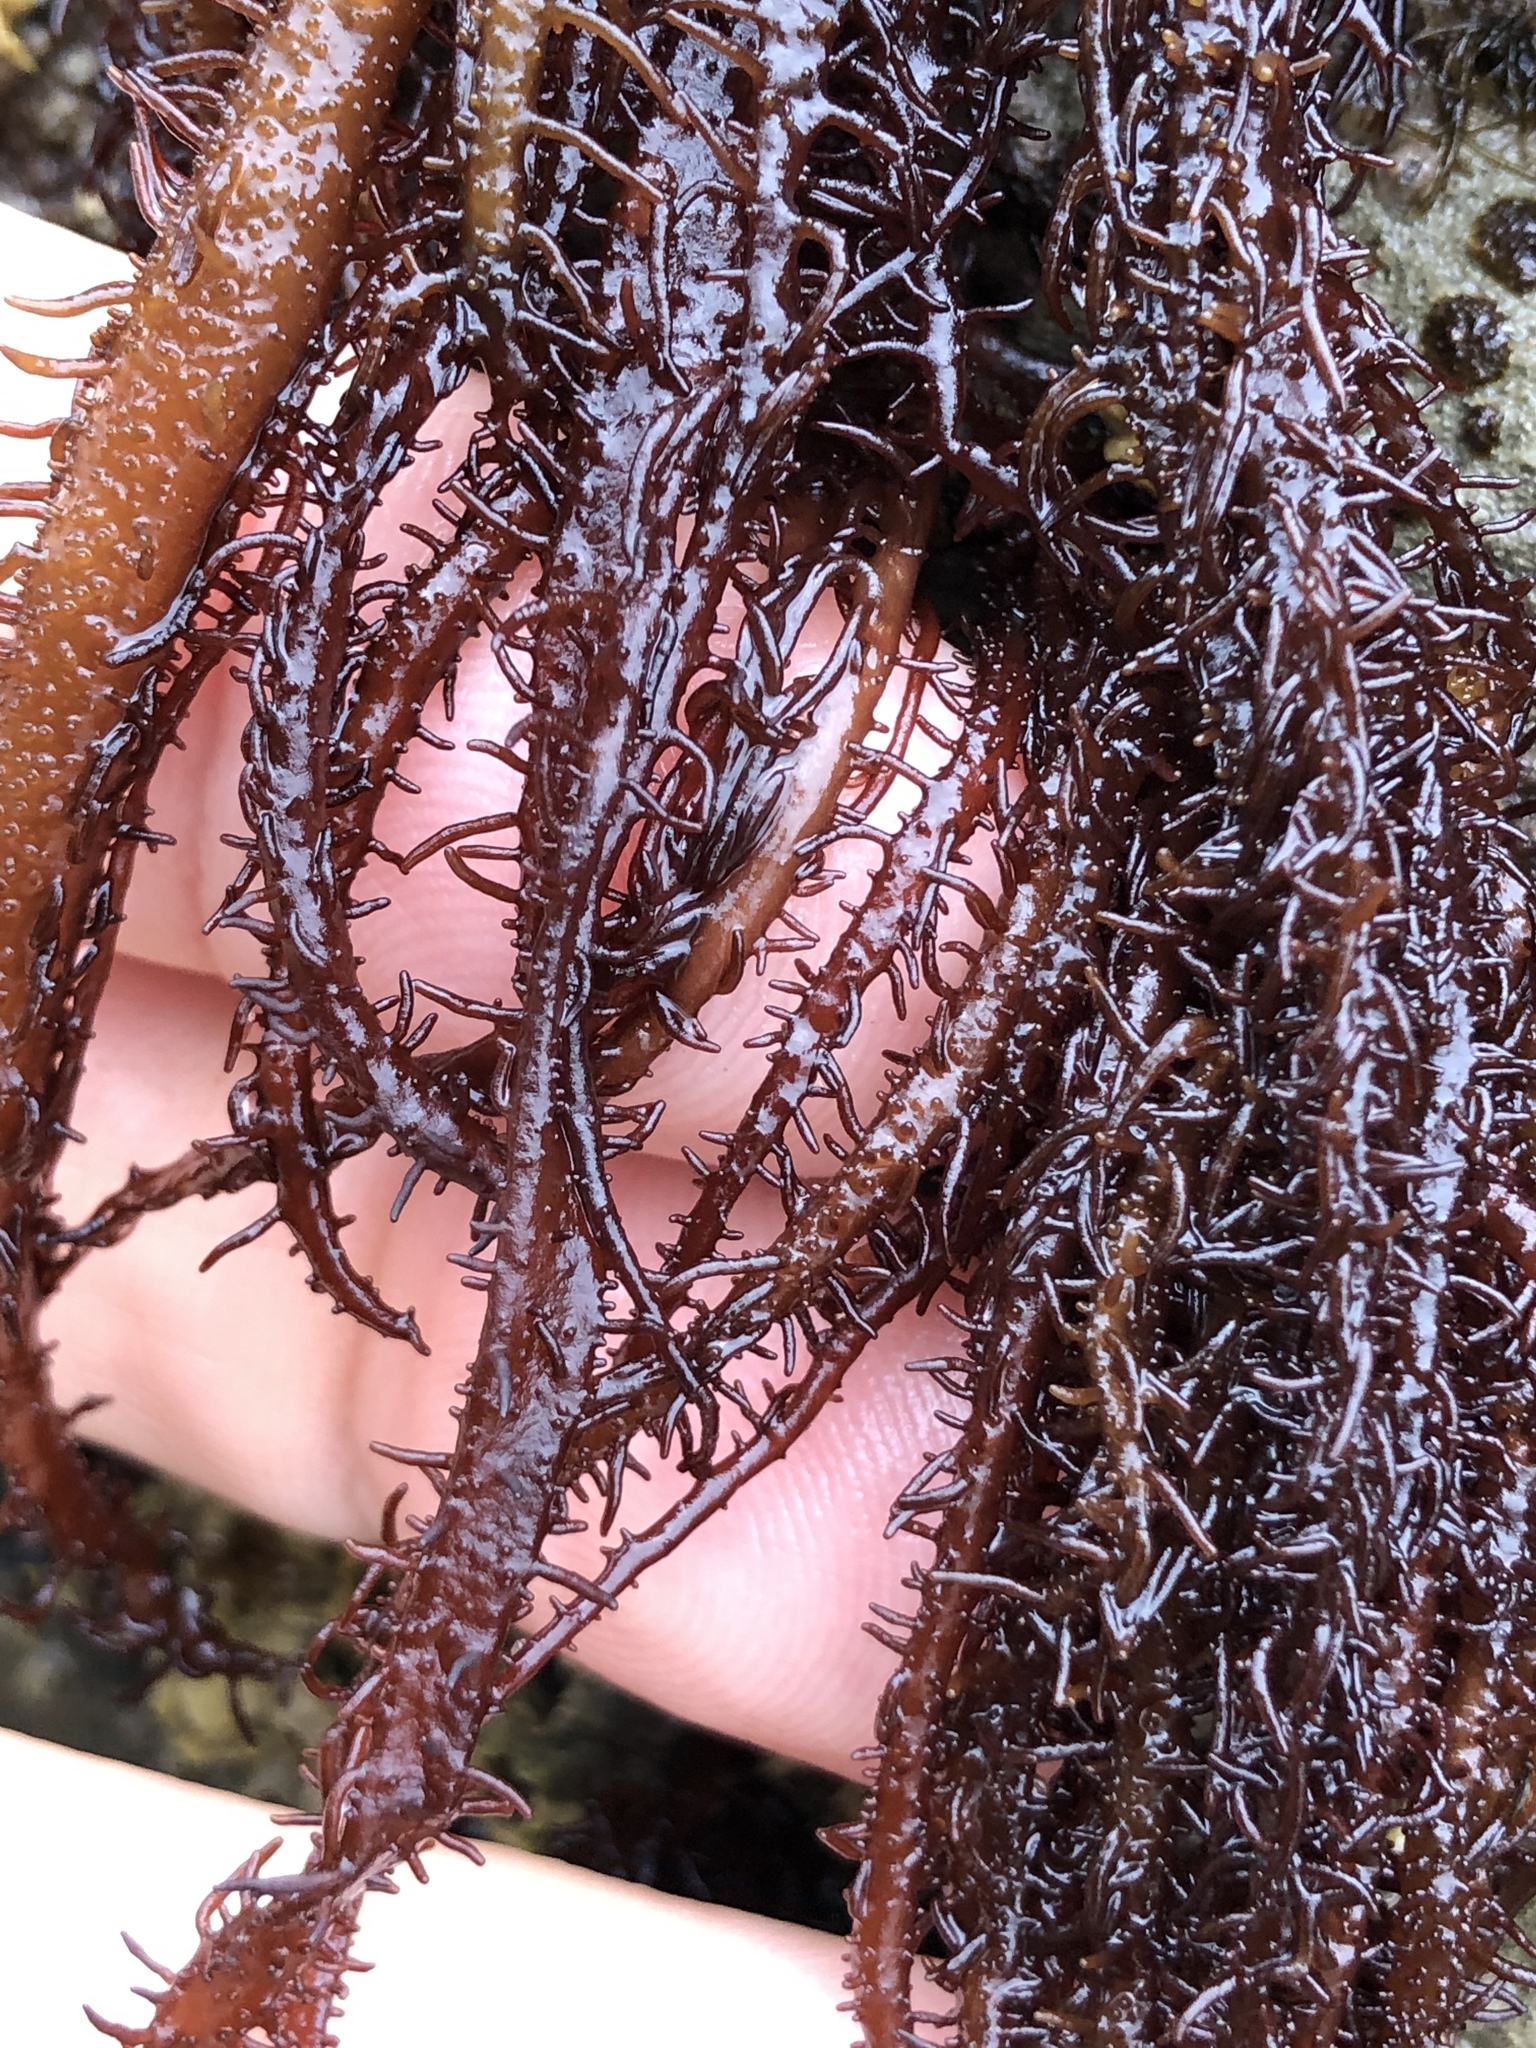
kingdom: Plantae
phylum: Rhodophyta
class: Florideophyceae
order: Nemaliales
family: Liagoraceae
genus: Cumagloia
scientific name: Cumagloia andersonii
